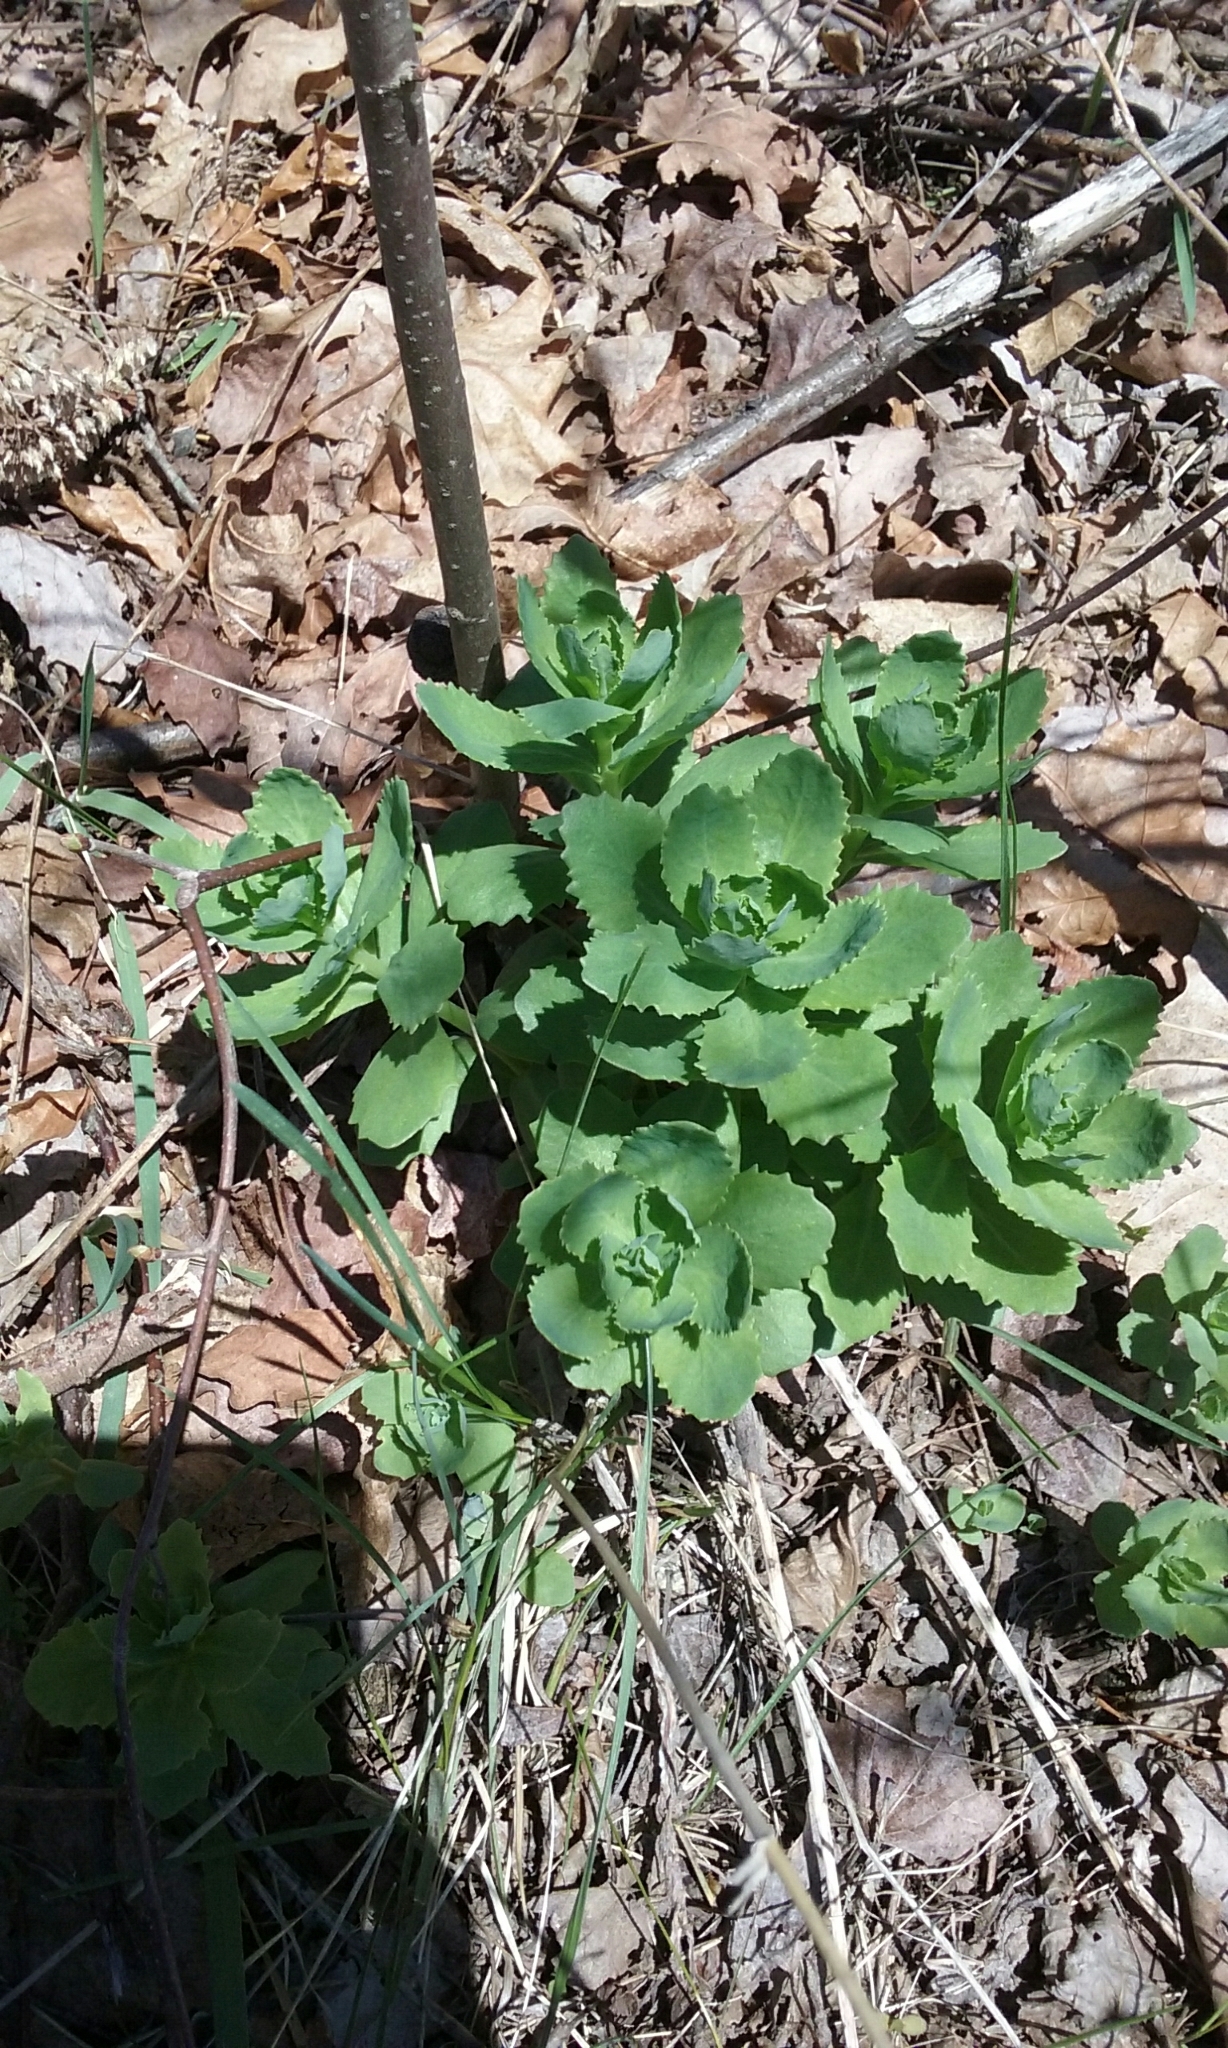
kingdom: Plantae
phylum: Tracheophyta
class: Magnoliopsida
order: Saxifragales
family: Crassulaceae
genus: Hylotelephium
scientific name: Hylotelephium telephium
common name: Live-forever
